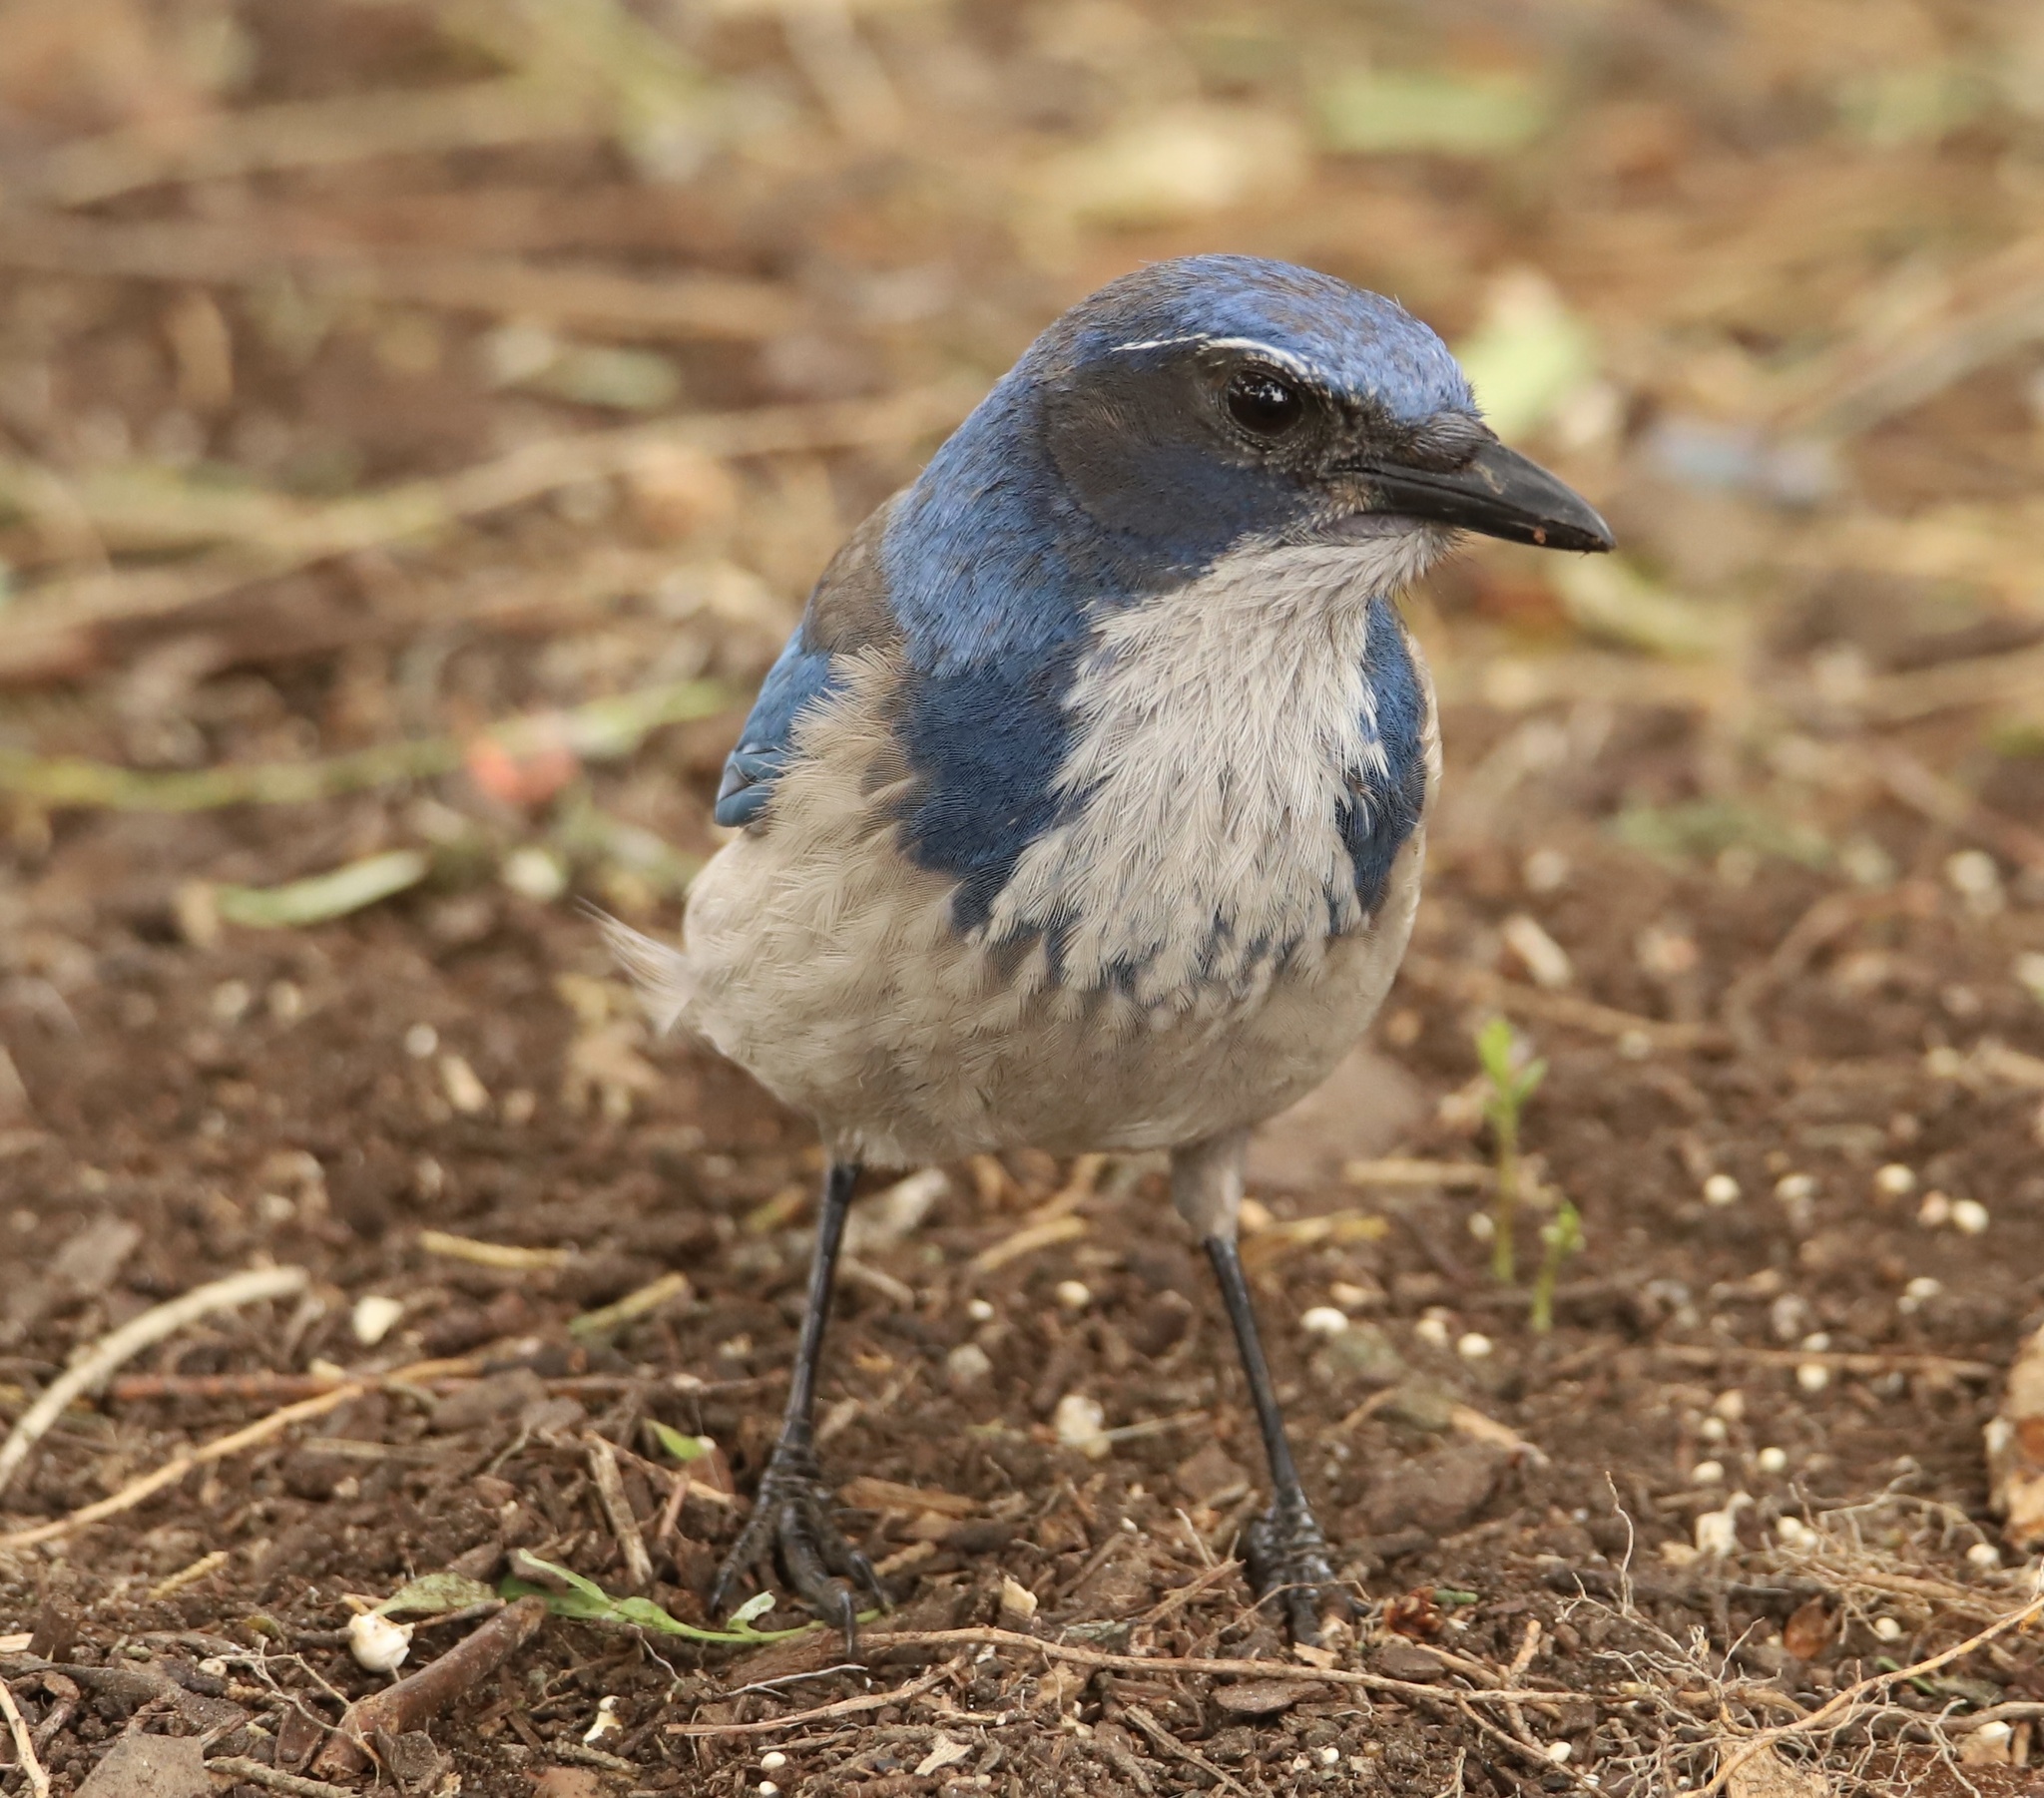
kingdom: Animalia
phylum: Chordata
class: Aves
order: Passeriformes
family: Corvidae
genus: Aphelocoma
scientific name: Aphelocoma californica
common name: California scrub-jay
